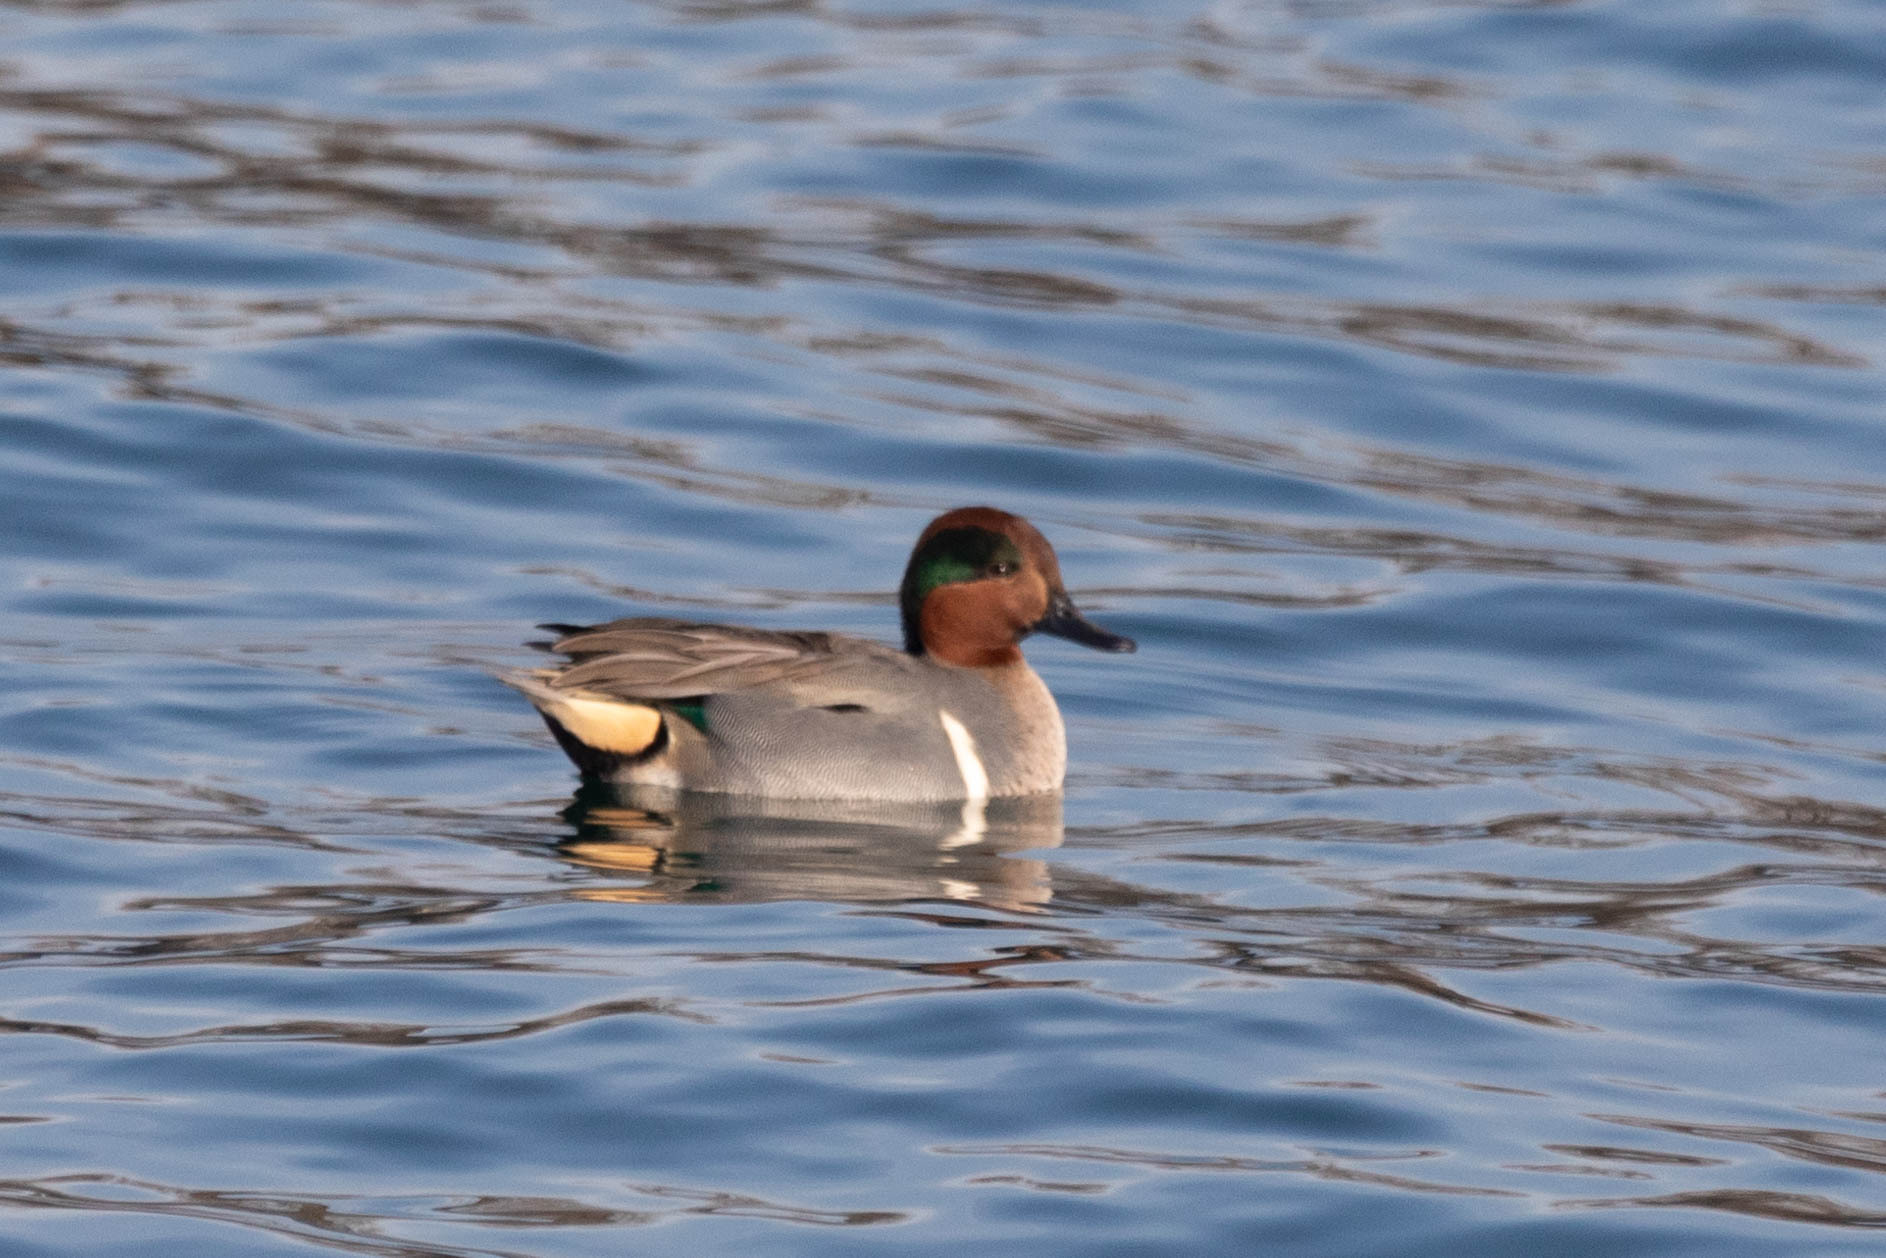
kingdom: Animalia
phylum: Chordata
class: Aves
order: Anseriformes
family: Anatidae
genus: Anas
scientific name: Anas carolinensis
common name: Green-winged teal
